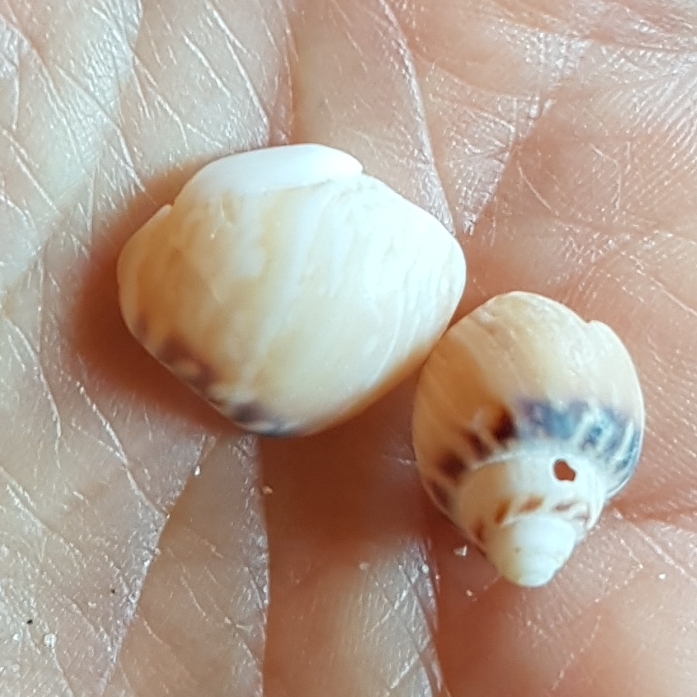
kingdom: Animalia
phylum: Mollusca
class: Gastropoda
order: Neogastropoda
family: Nassariidae
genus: Tritia
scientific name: Tritia mutabilis
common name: Mutable nassa
